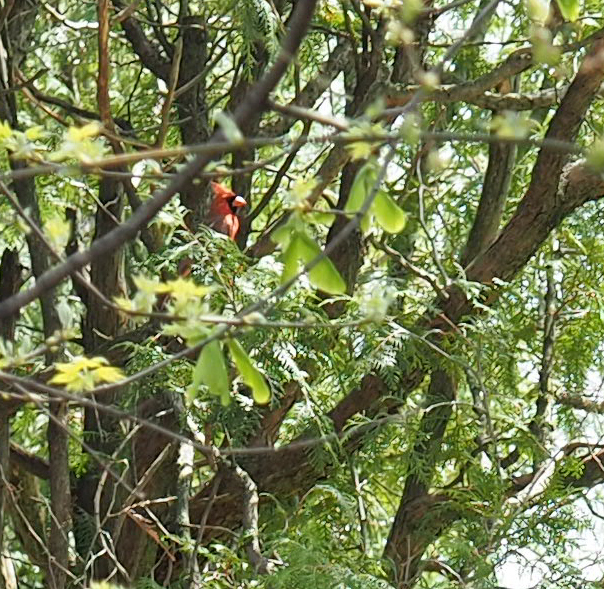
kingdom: Animalia
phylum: Chordata
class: Aves
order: Passeriformes
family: Cardinalidae
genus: Cardinalis
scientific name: Cardinalis cardinalis
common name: Northern cardinal
